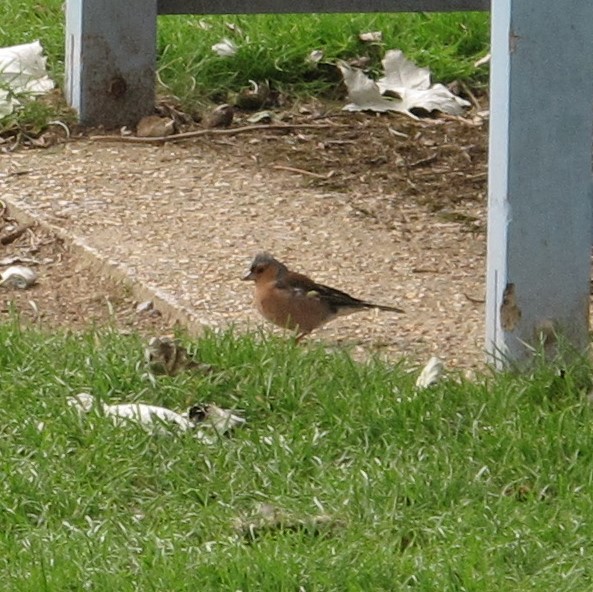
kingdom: Animalia
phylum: Chordata
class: Aves
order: Passeriformes
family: Fringillidae
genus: Fringilla
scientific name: Fringilla coelebs
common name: Common chaffinch
